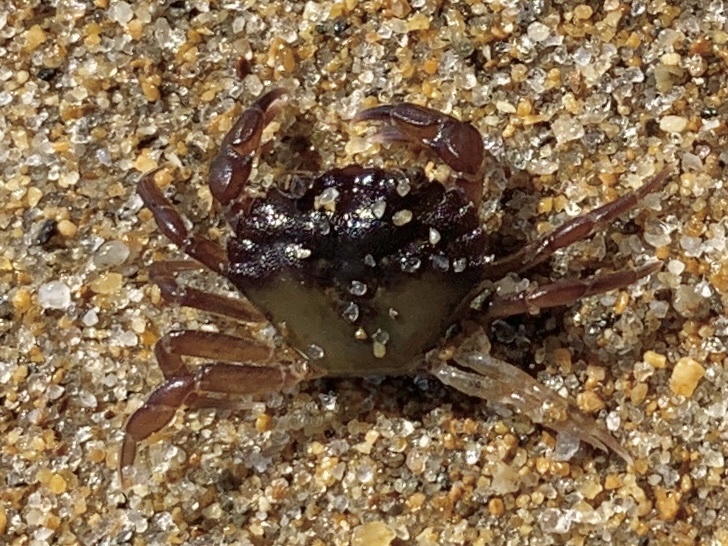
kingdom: Animalia
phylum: Arthropoda
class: Malacostraca
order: Decapoda
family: Carcinidae
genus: Carcinus
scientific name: Carcinus maenas
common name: European green crab
